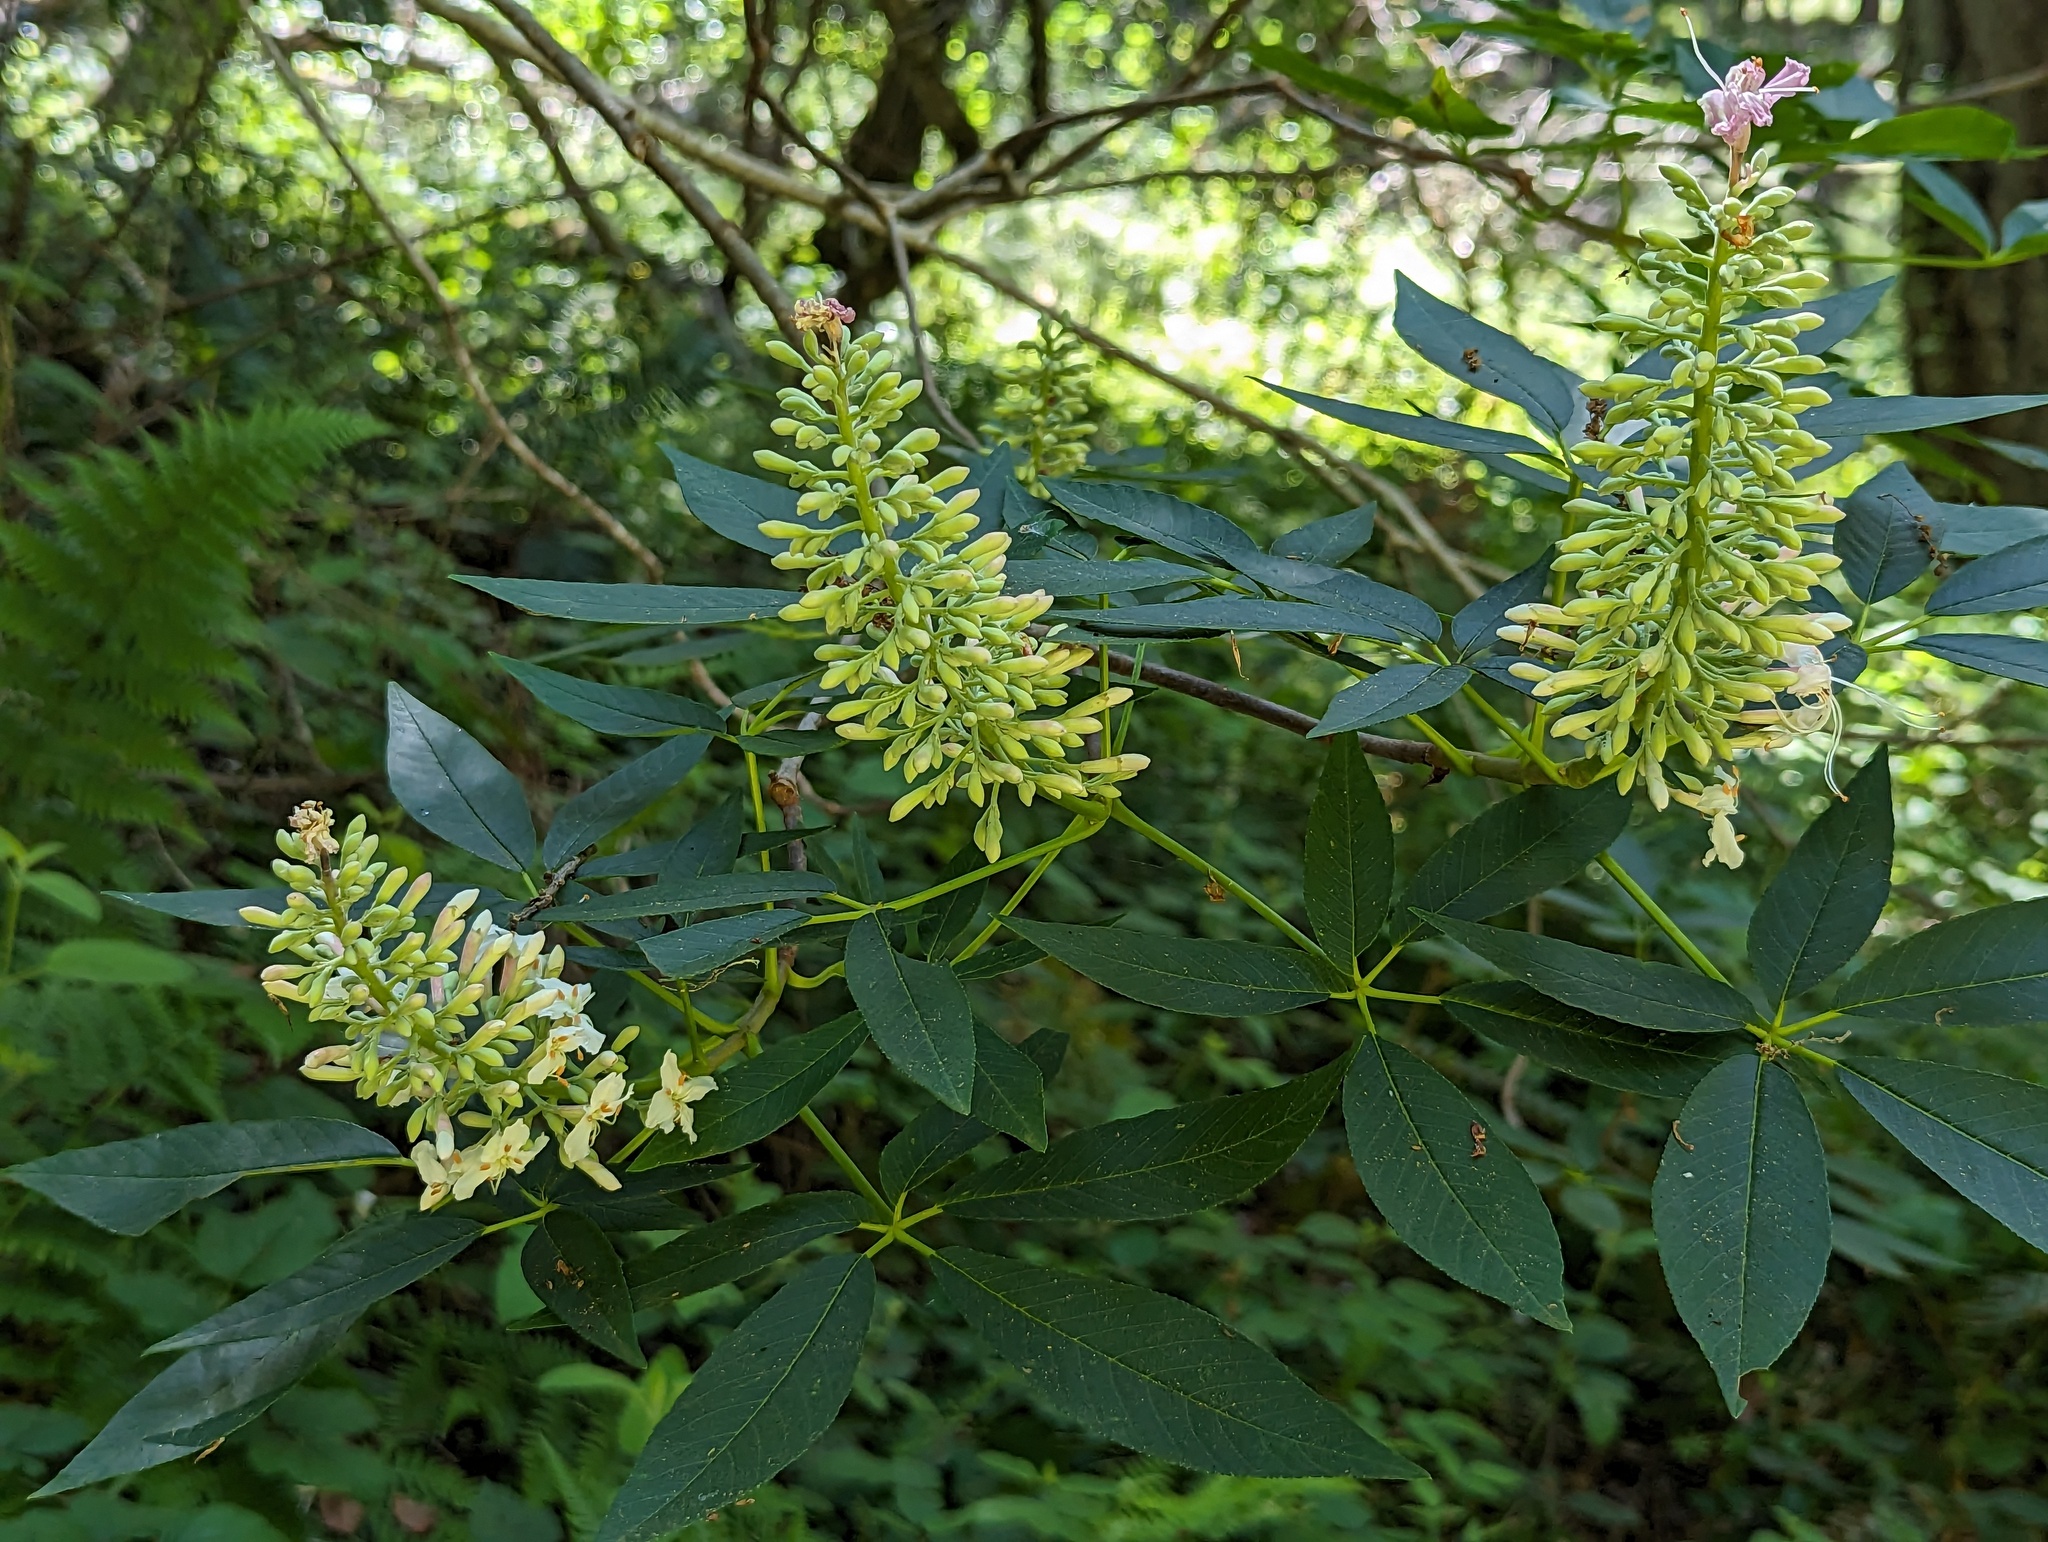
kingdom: Plantae
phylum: Tracheophyta
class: Magnoliopsida
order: Sapindales
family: Sapindaceae
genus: Aesculus
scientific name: Aesculus californica
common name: California buckeye
